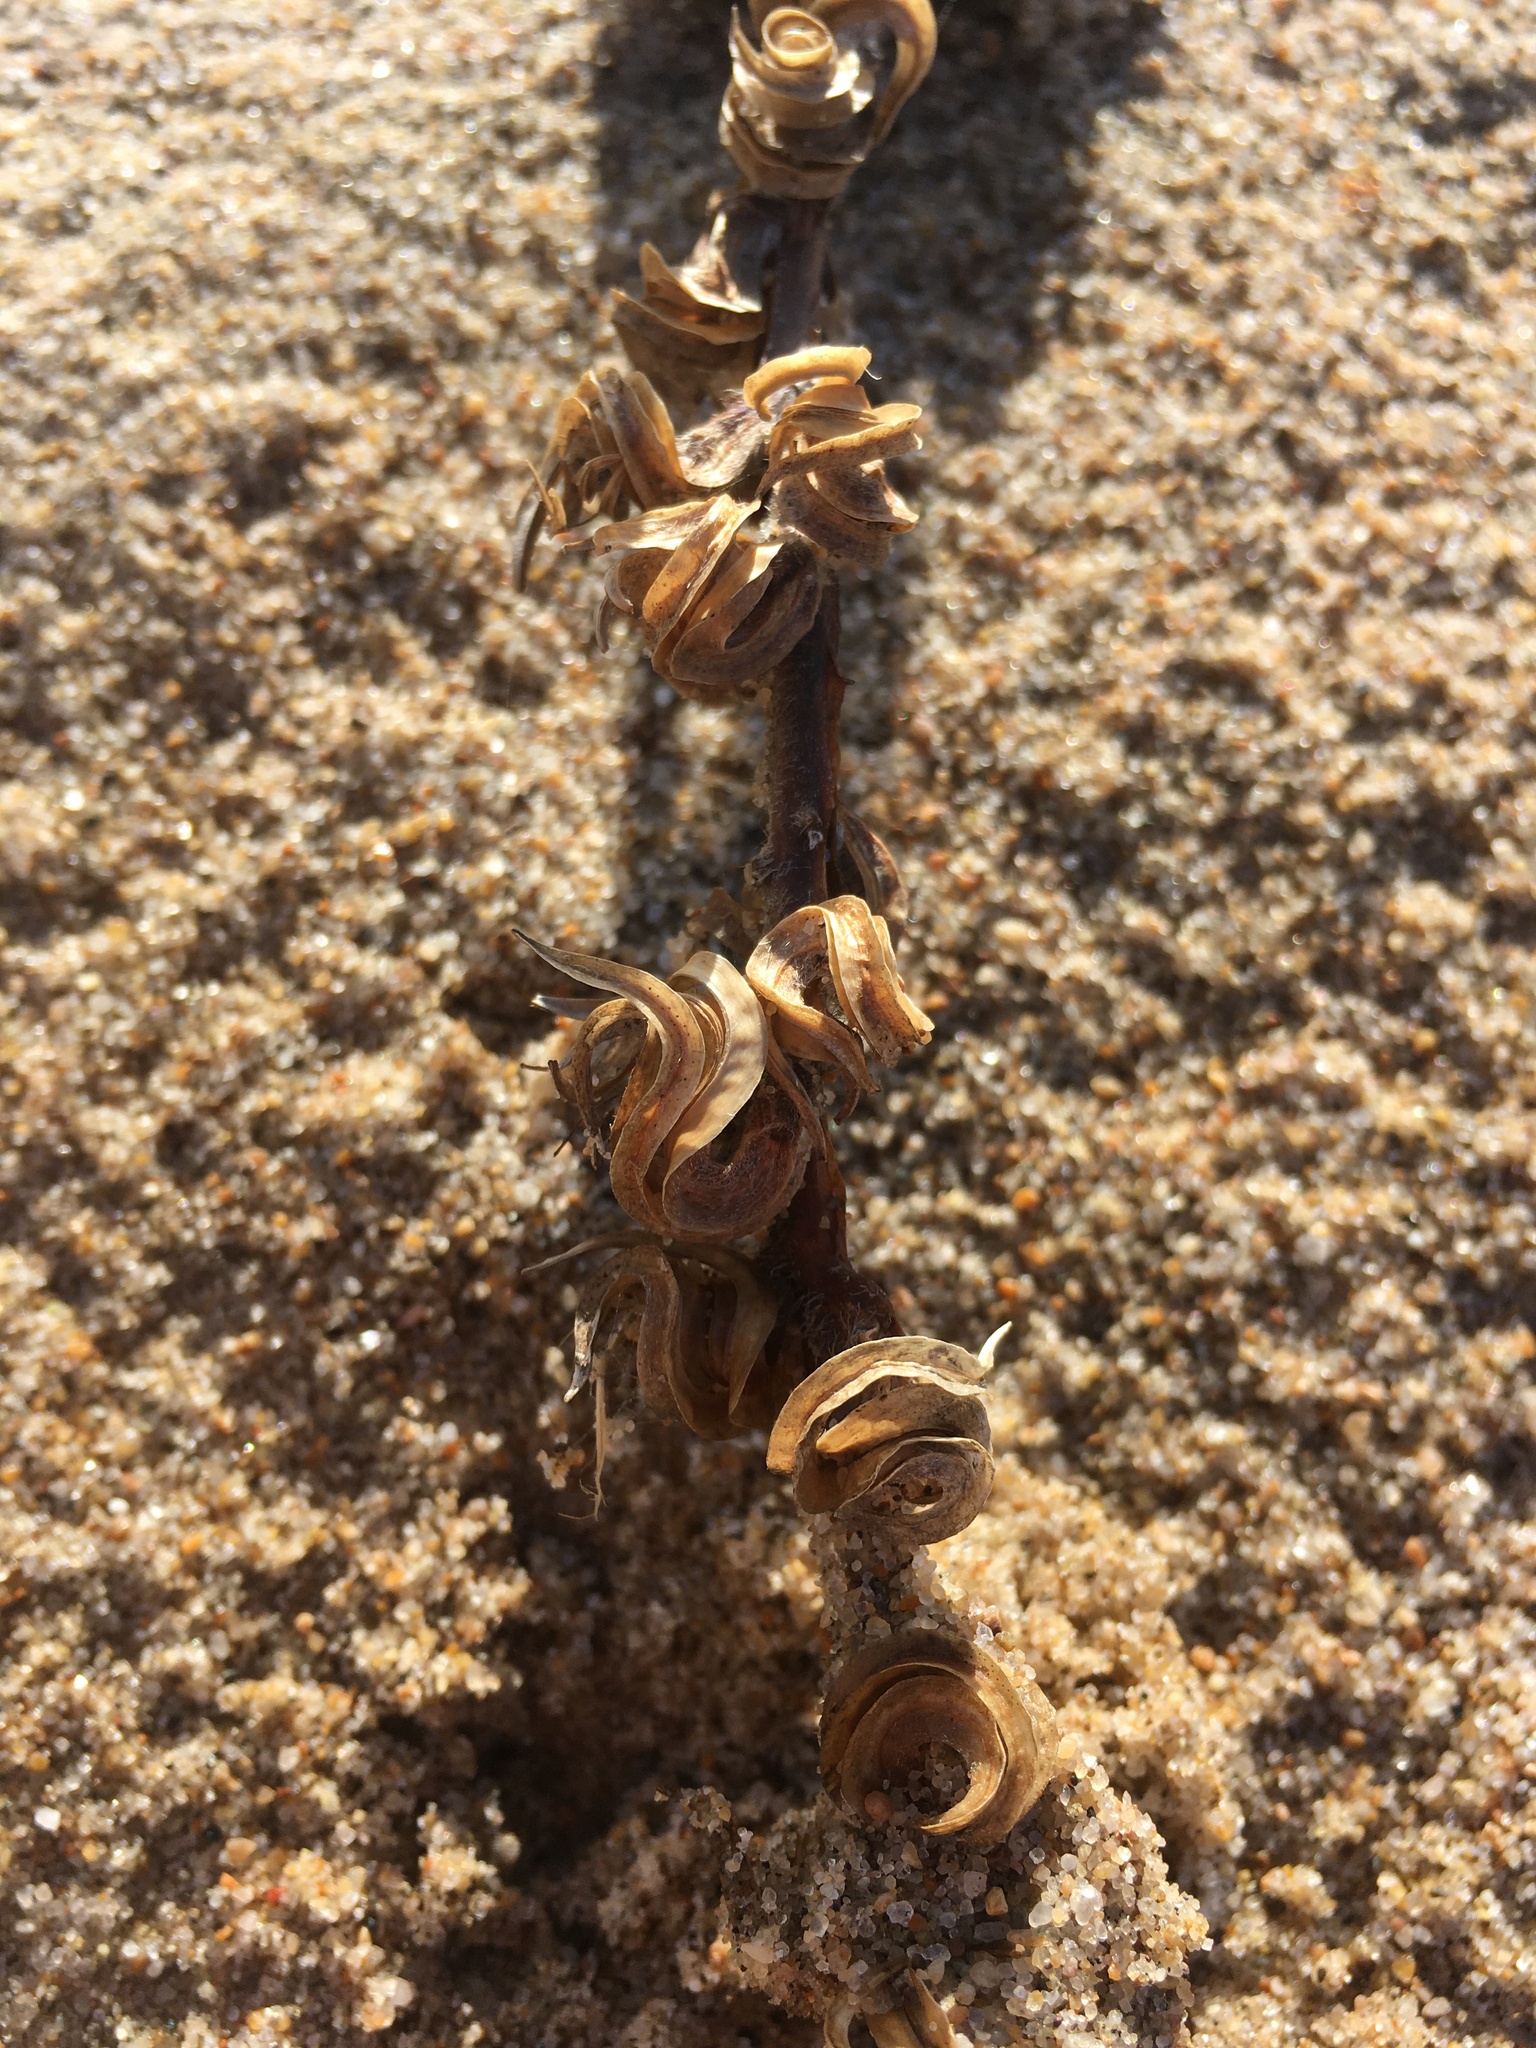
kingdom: Plantae
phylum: Tracheophyta
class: Magnoliopsida
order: Myrtales
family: Onagraceae
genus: Camissoniopsis
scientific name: Camissoniopsis cheiranthifolia
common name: Beach suncup
